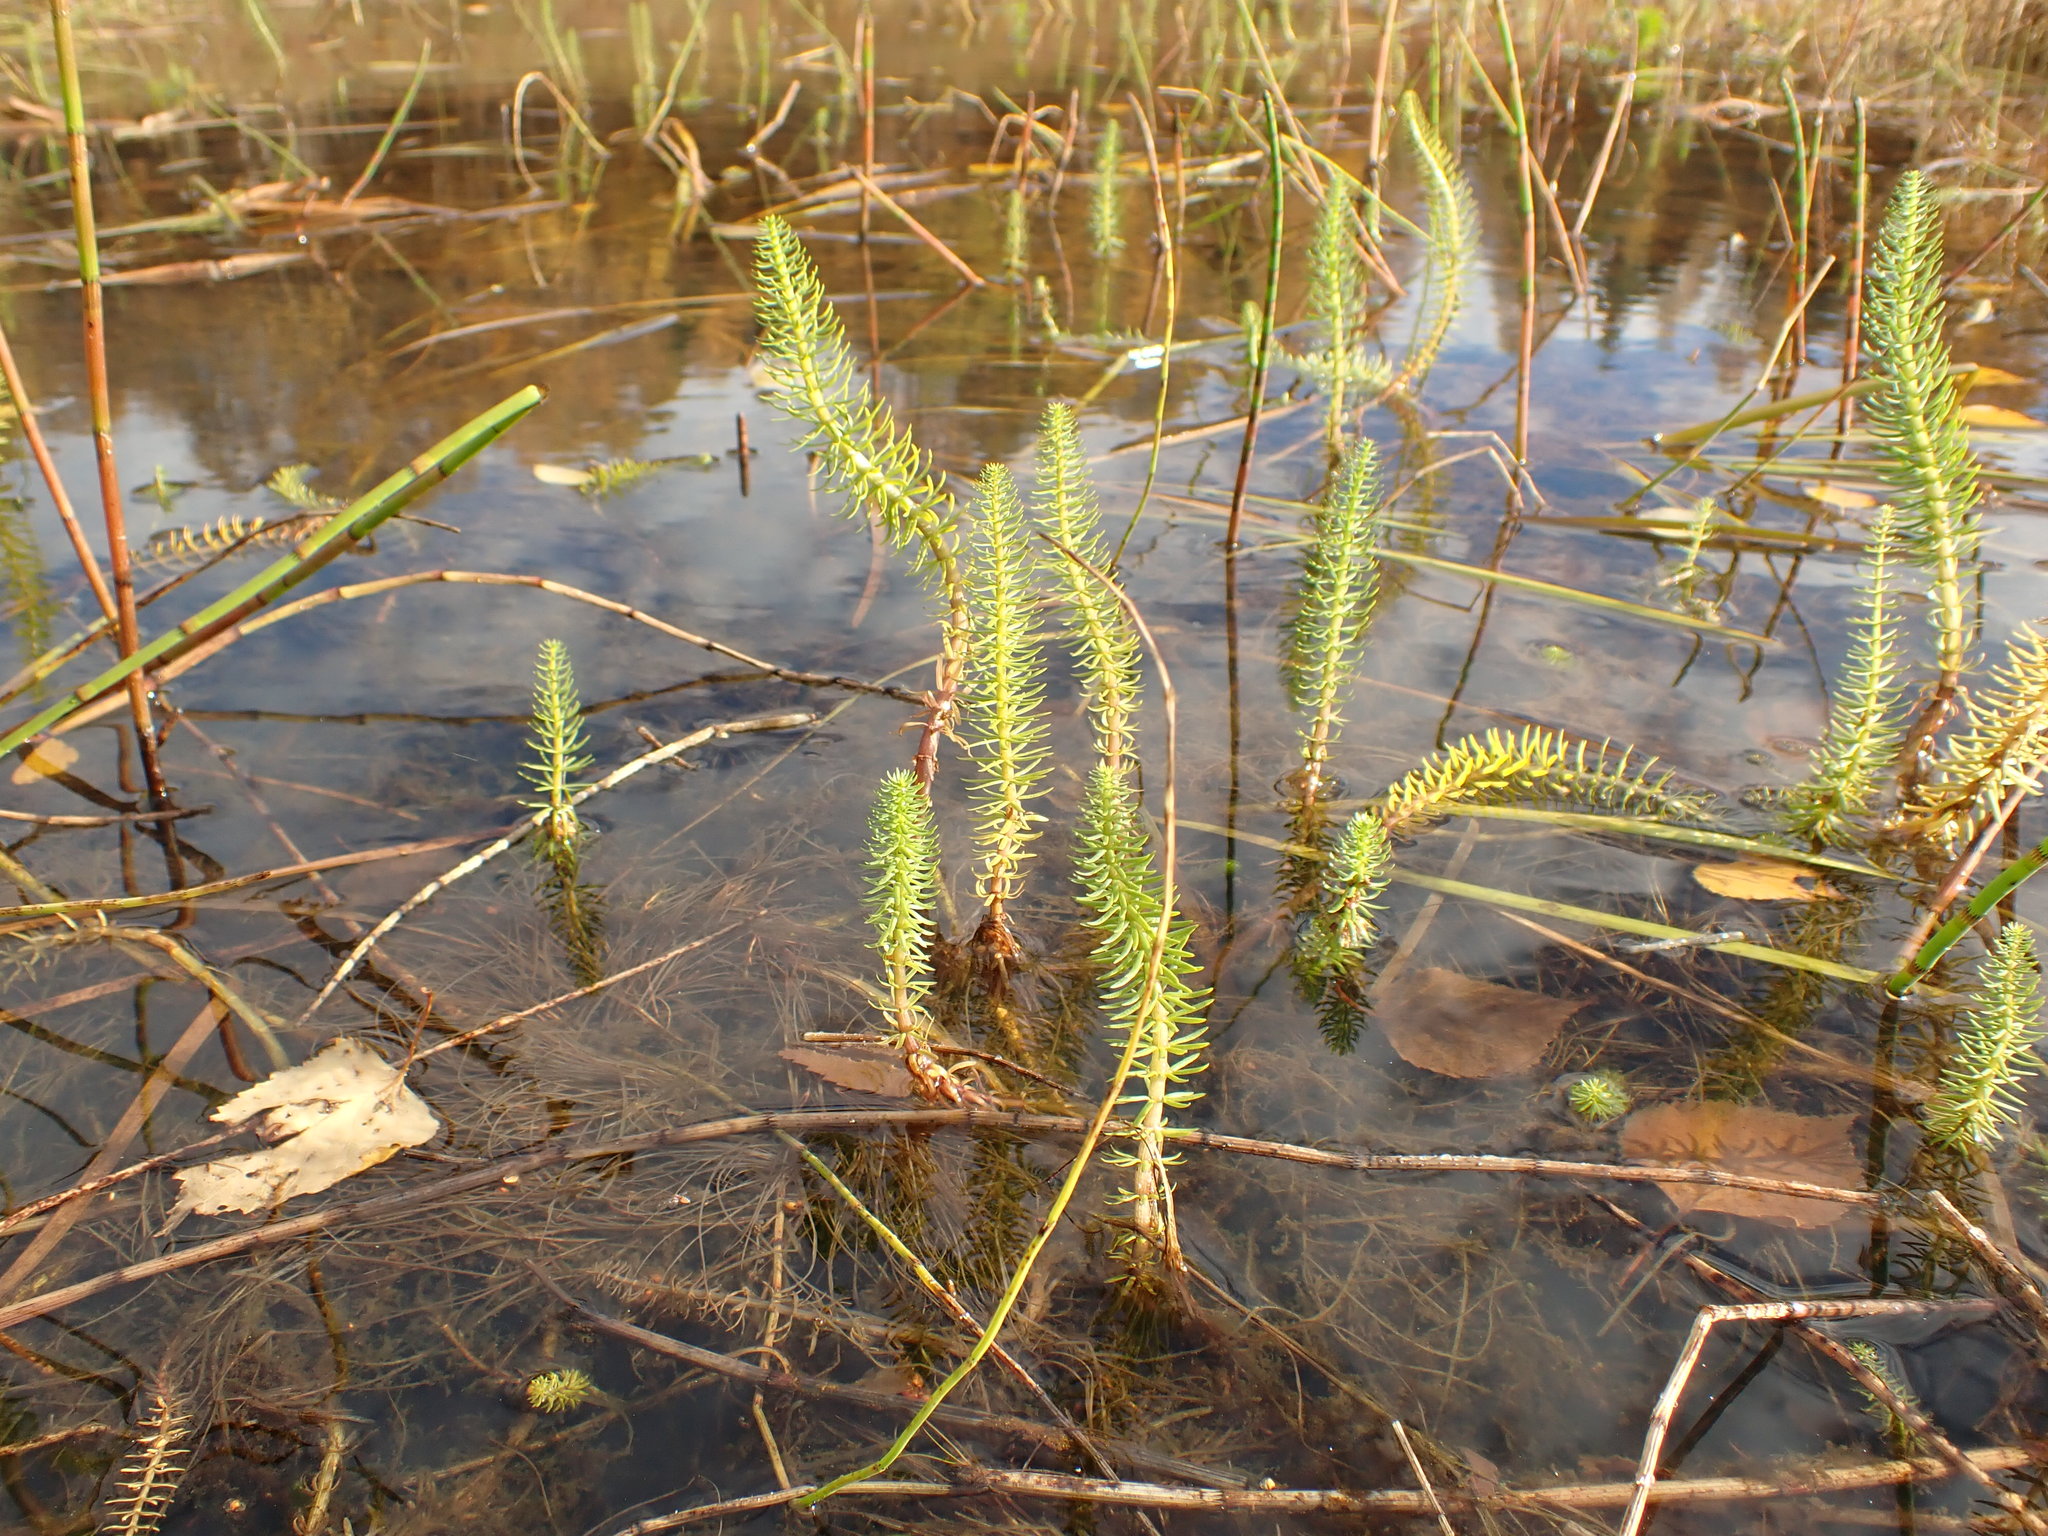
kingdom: Plantae
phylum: Tracheophyta
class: Magnoliopsida
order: Lamiales
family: Plantaginaceae
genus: Hippuris
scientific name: Hippuris vulgaris
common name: Mare's-tail
